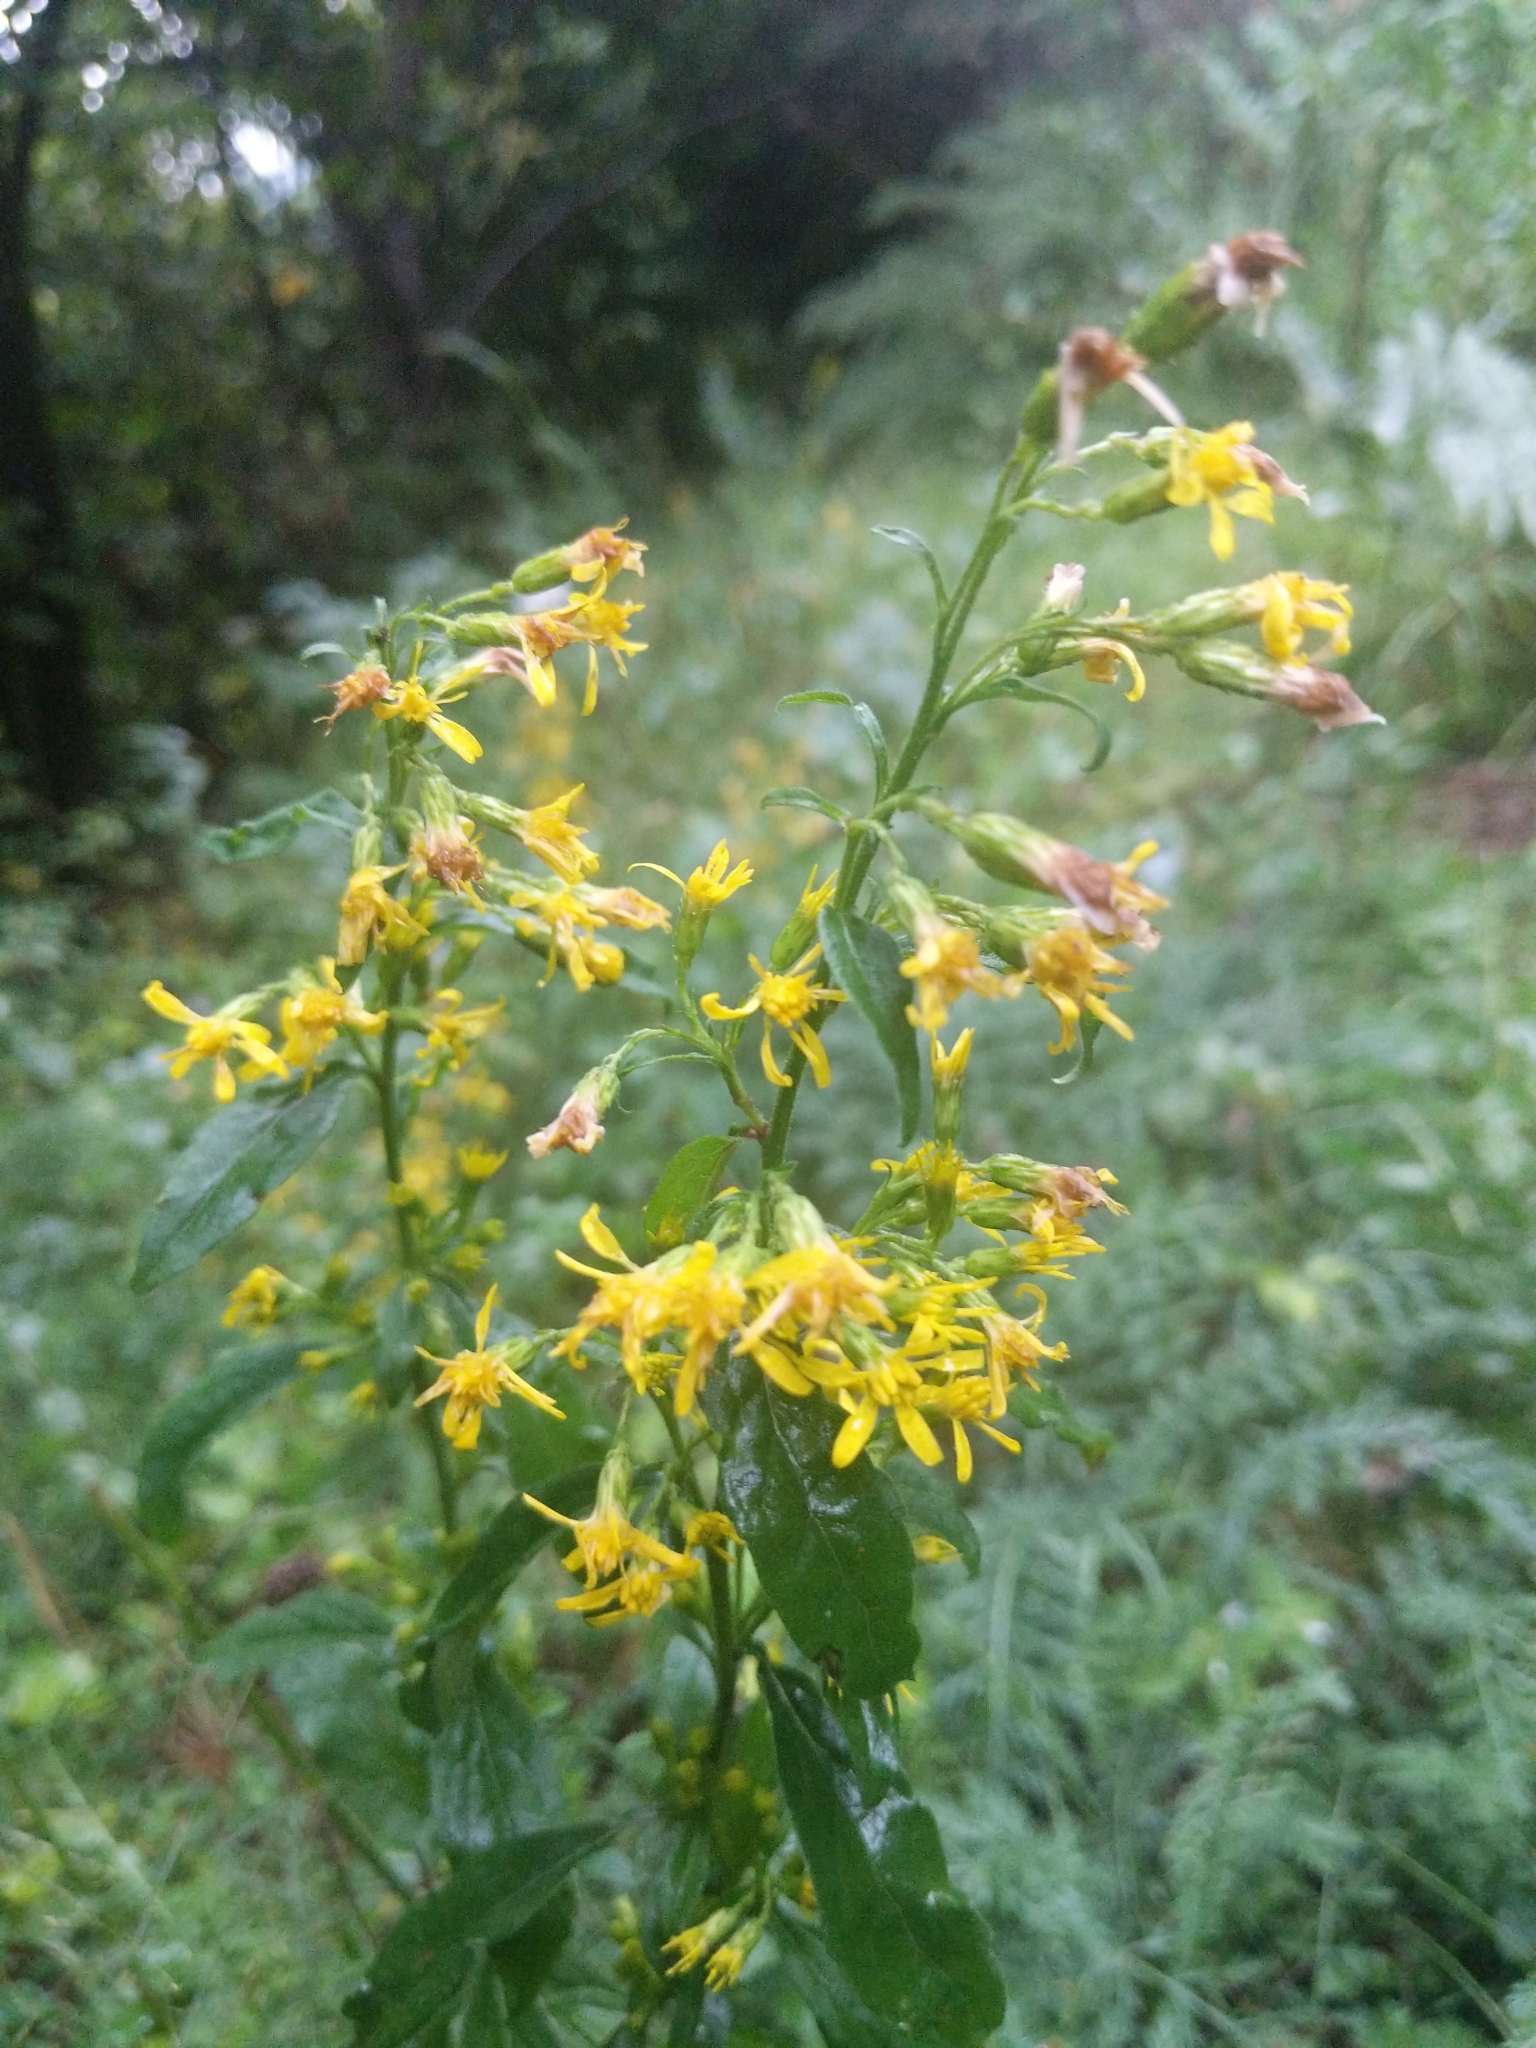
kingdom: Plantae
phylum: Tracheophyta
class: Magnoliopsida
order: Asterales
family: Asteraceae
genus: Solidago
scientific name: Solidago virgaurea
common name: Goldenrod
